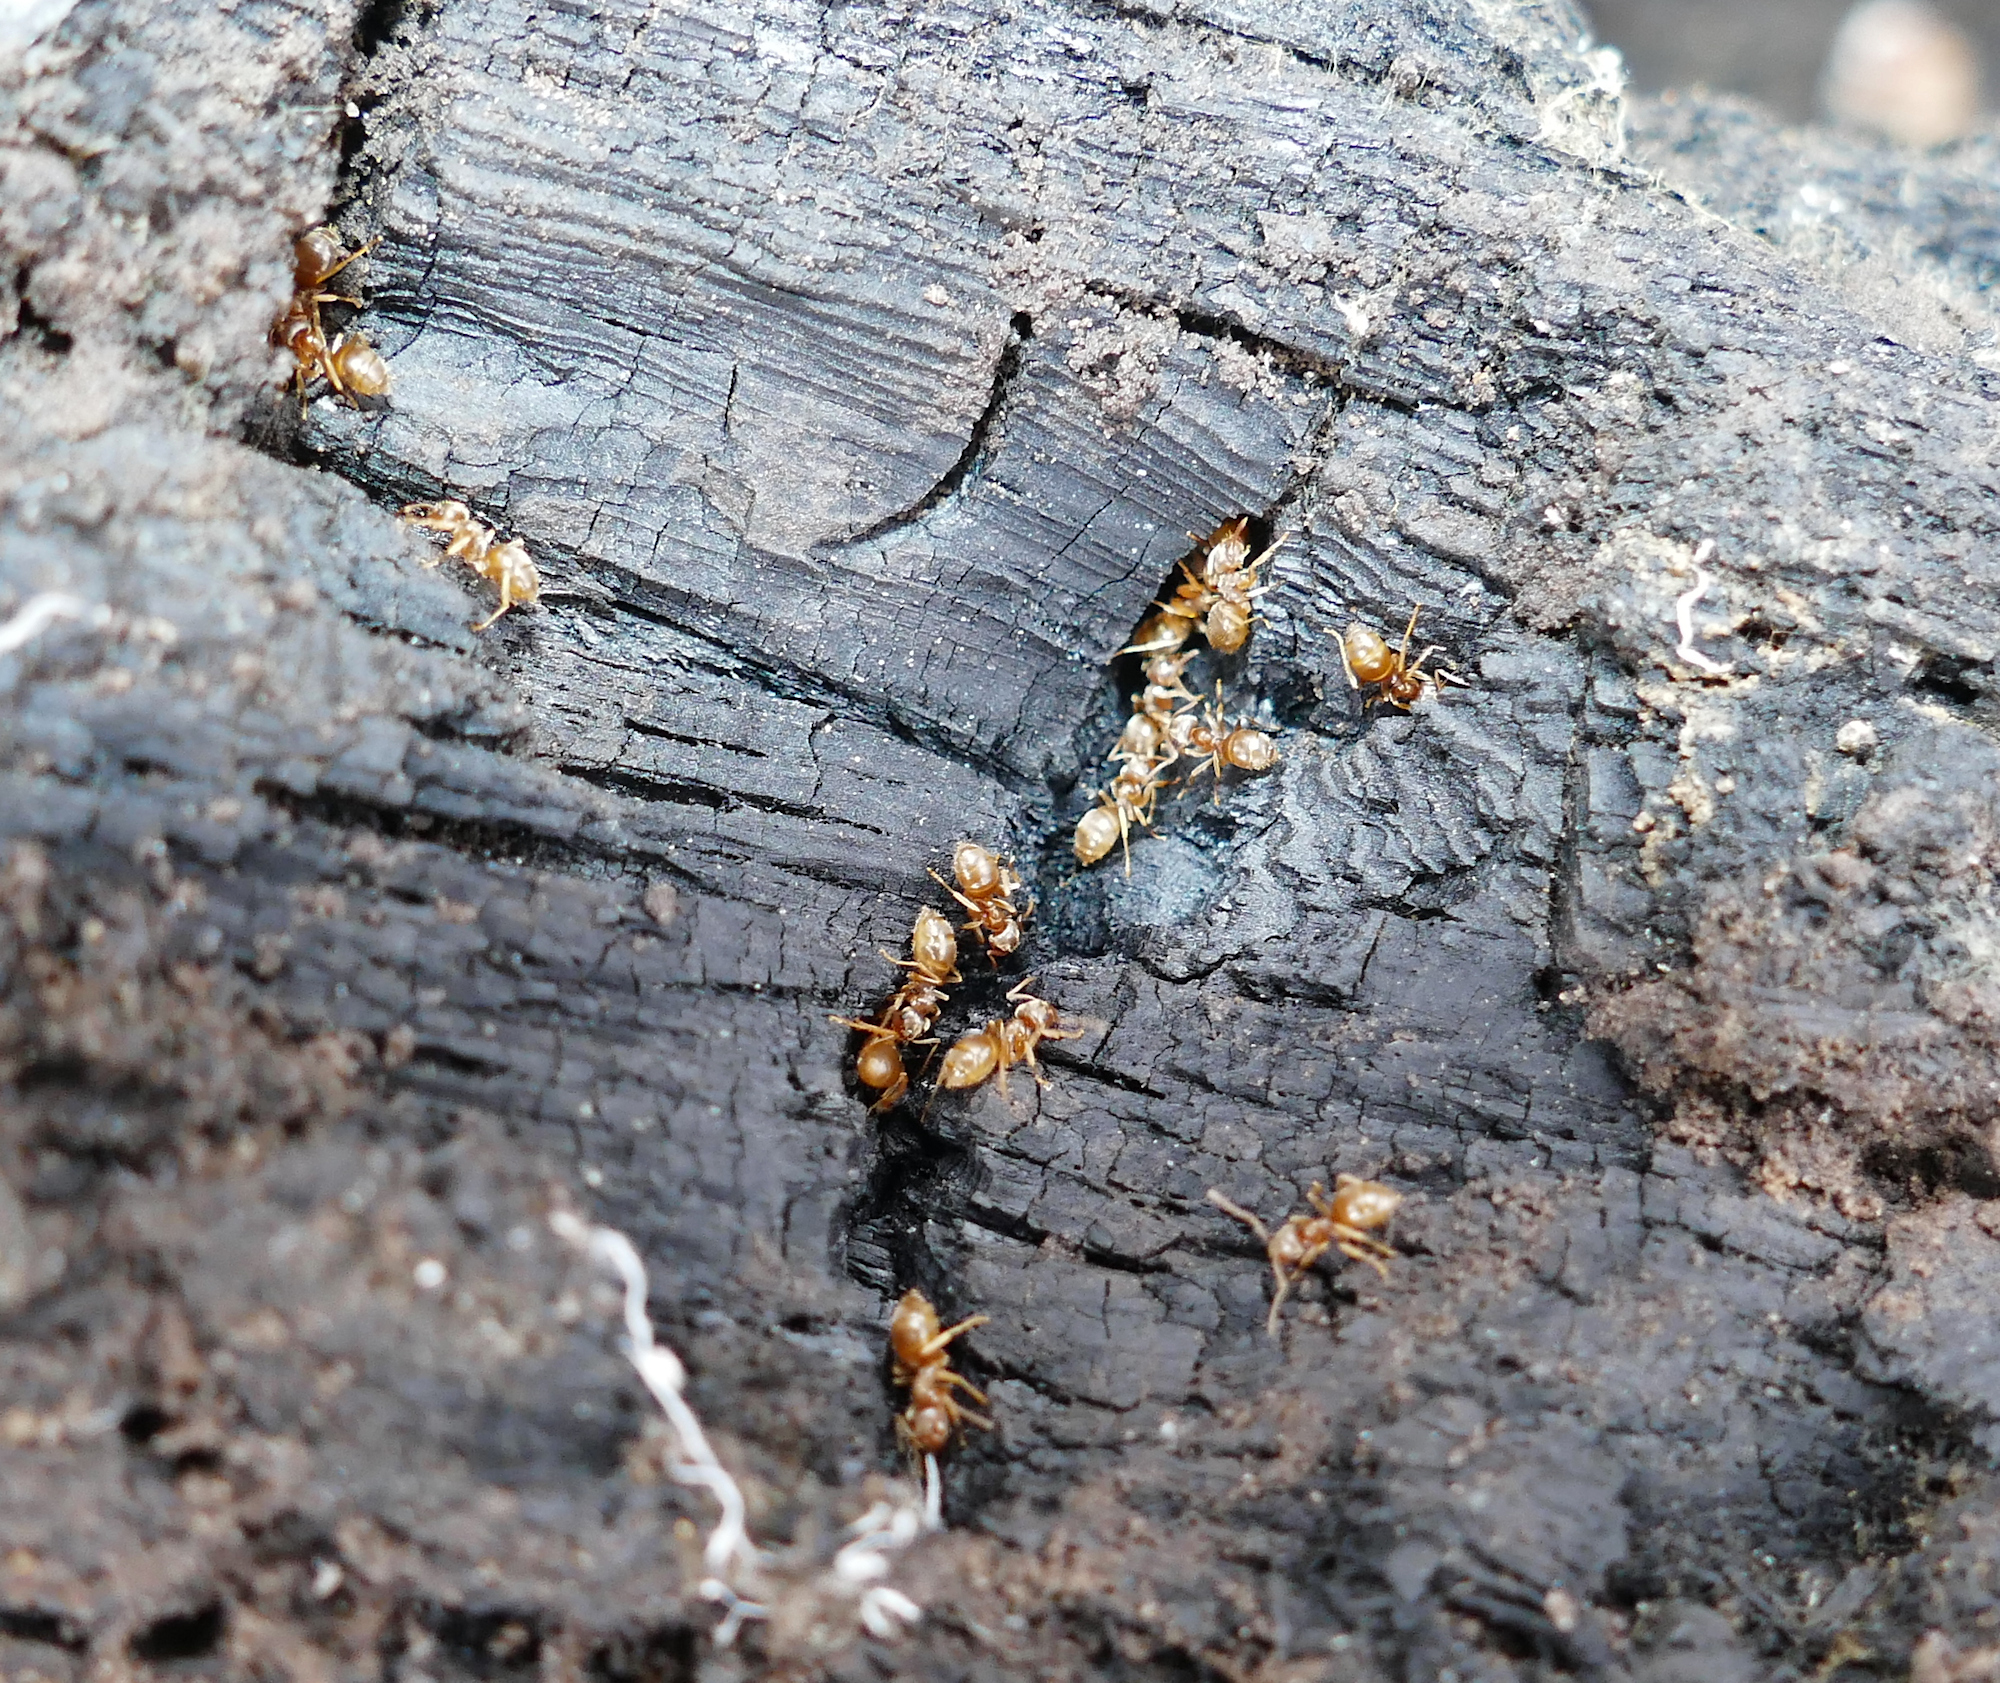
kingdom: Animalia
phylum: Arthropoda
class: Insecta
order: Hymenoptera
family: Formicidae
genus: Lasius
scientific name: Lasius pallitarsis
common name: Subterranean aphid-tending ant
